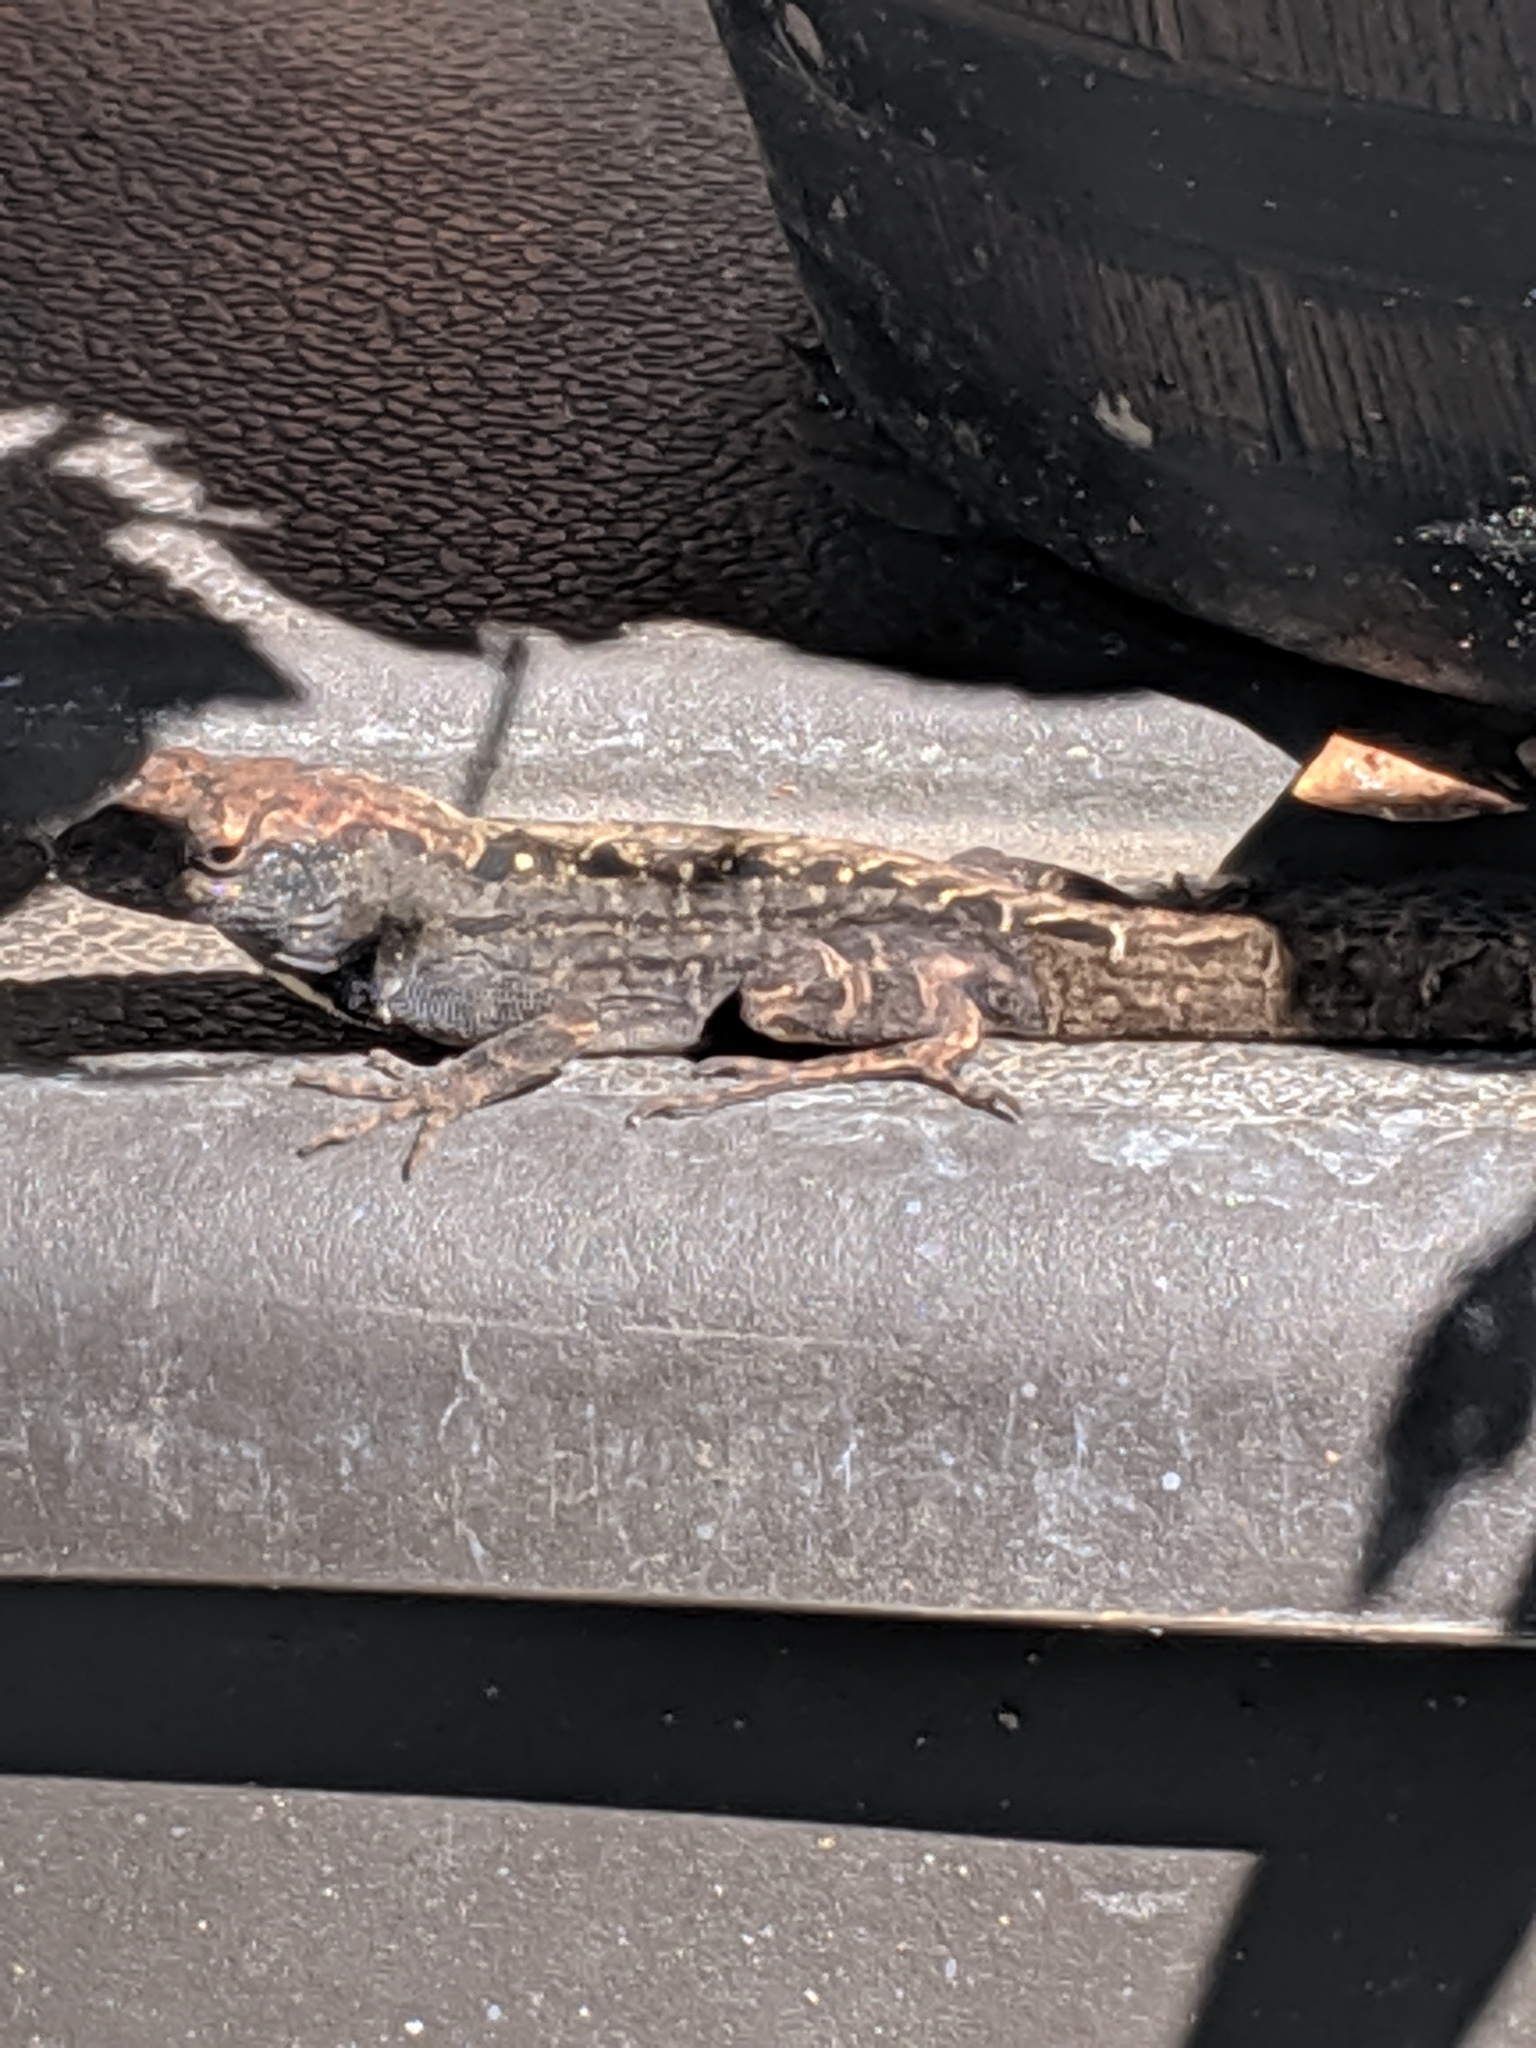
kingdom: Animalia
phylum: Chordata
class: Squamata
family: Dactyloidae
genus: Anolis
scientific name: Anolis sagrei
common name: Brown anole
